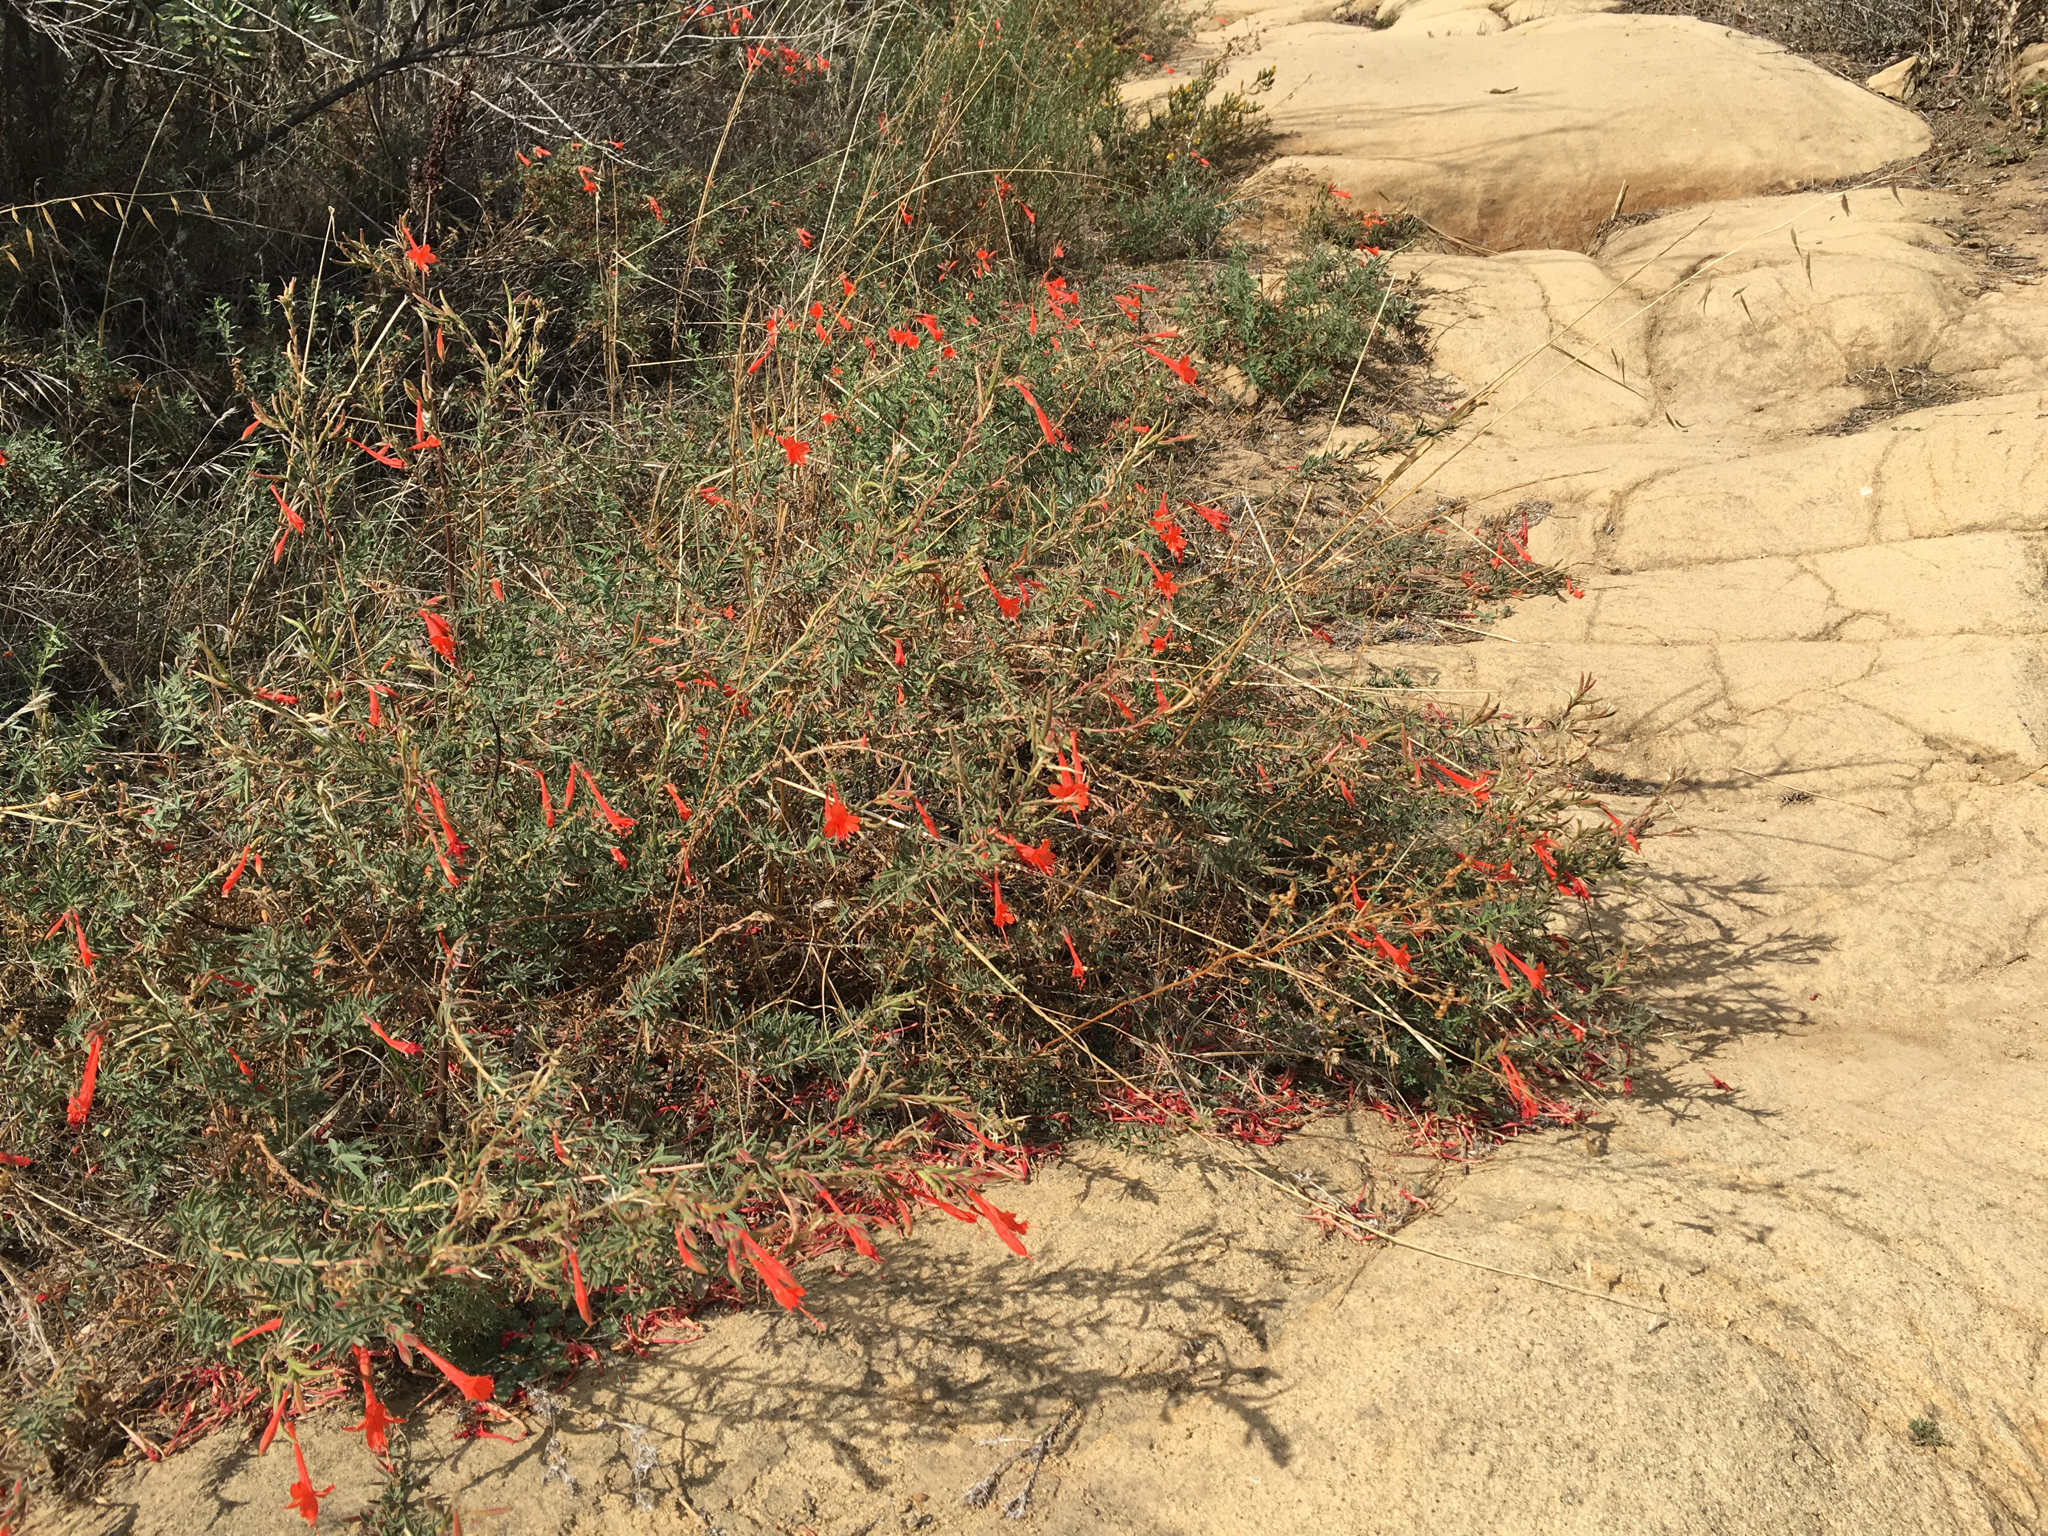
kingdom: Plantae
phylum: Tracheophyta
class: Magnoliopsida
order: Myrtales
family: Onagraceae
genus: Epilobium
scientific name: Epilobium canum
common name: California-fuchsia
